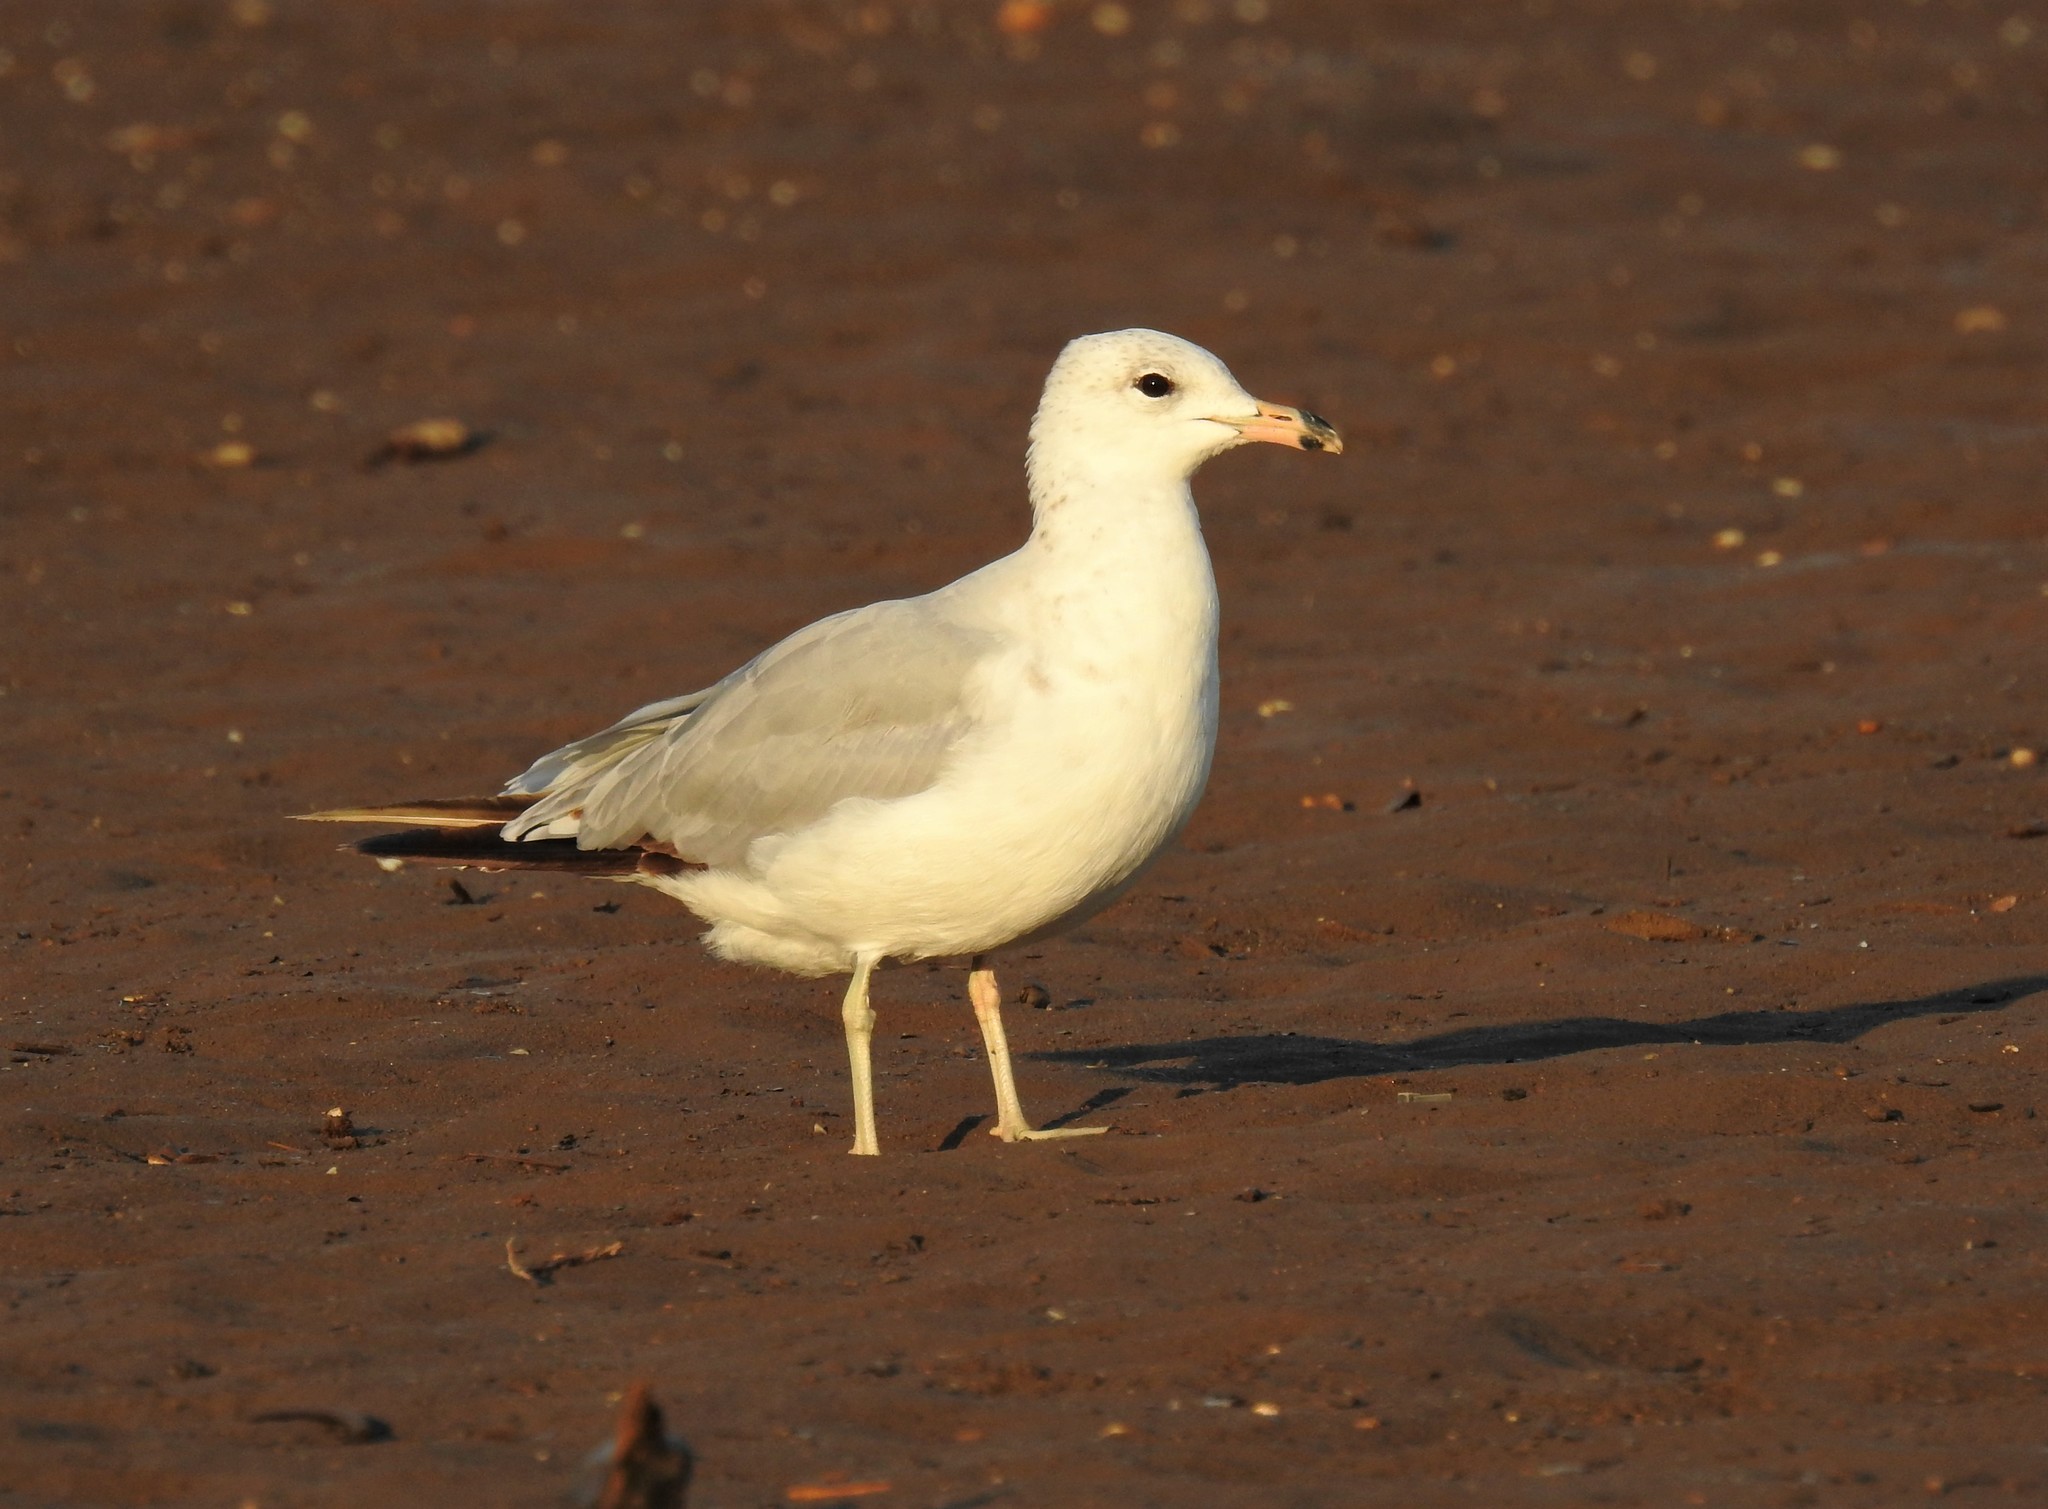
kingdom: Animalia
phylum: Chordata
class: Aves
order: Charadriiformes
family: Laridae
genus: Larus
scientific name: Larus delawarensis
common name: Ring-billed gull
